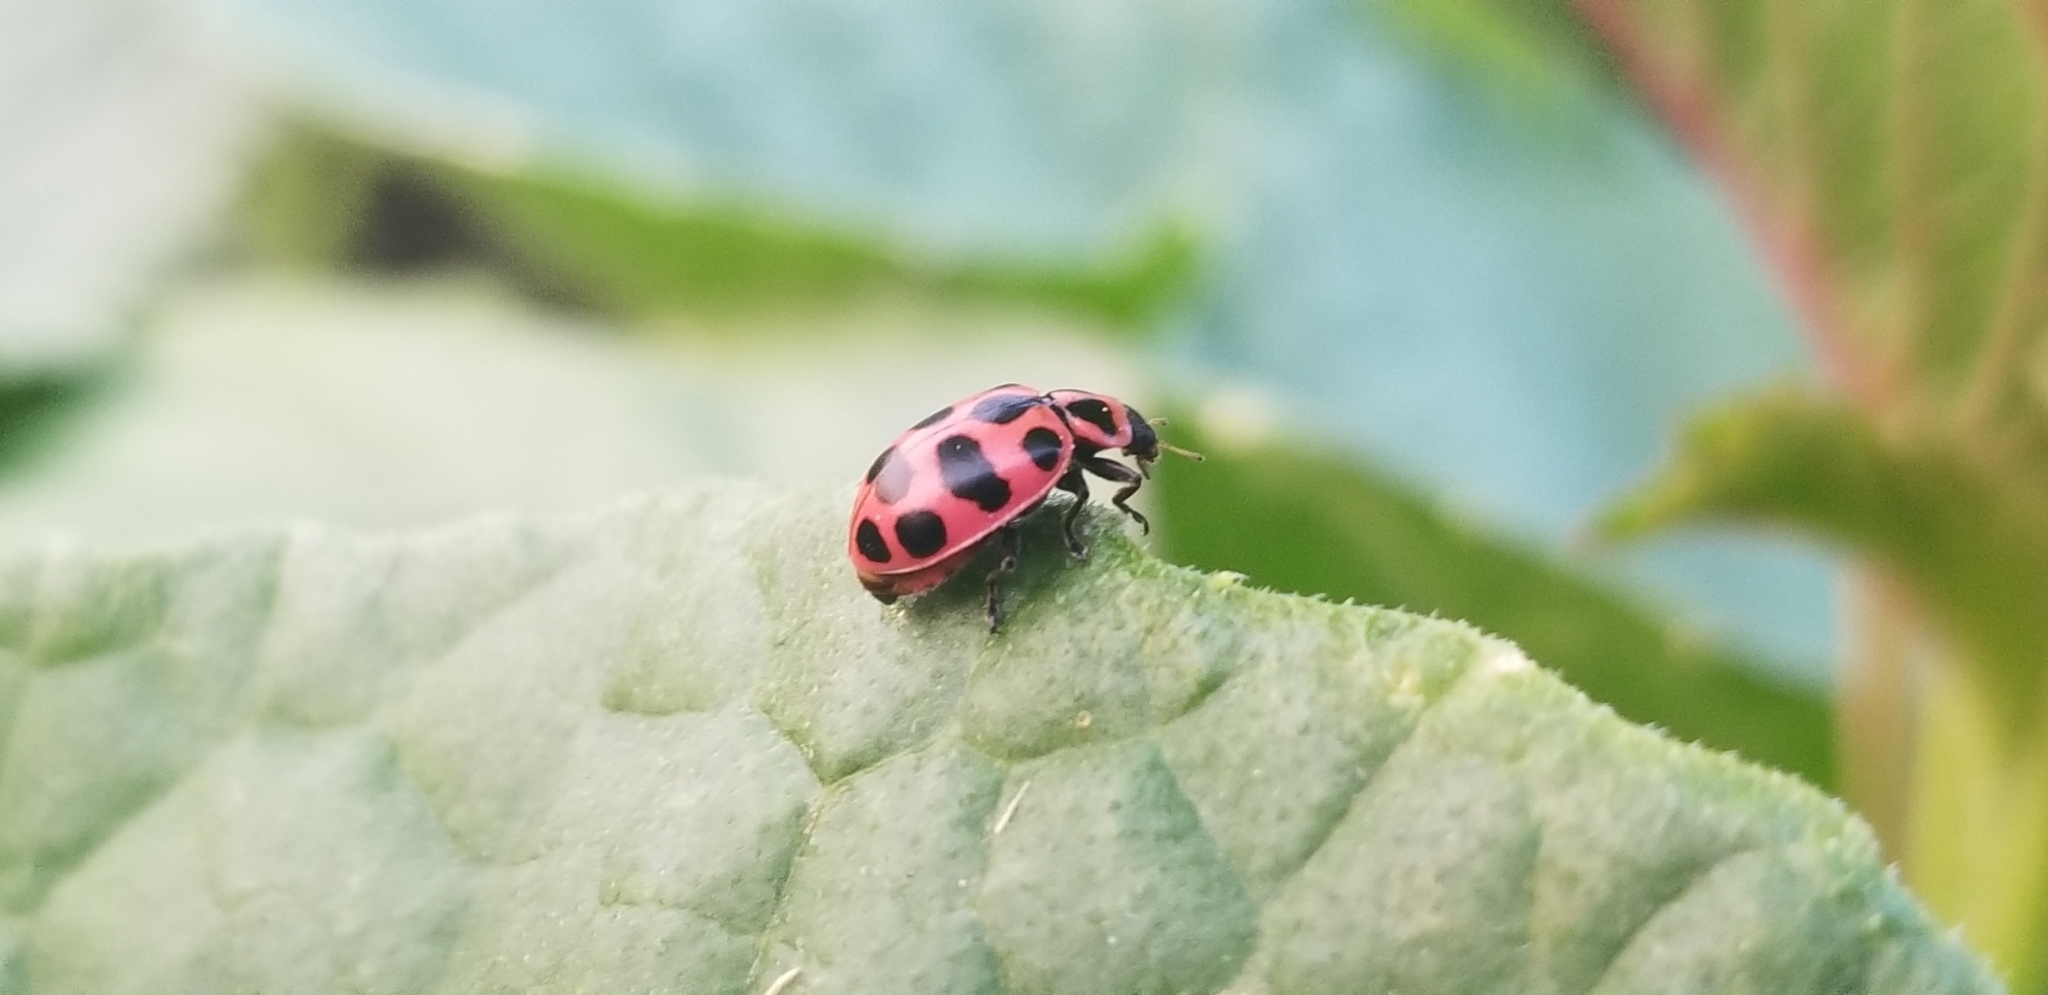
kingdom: Animalia
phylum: Arthropoda
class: Insecta
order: Coleoptera
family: Coccinellidae
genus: Coleomegilla
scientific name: Coleomegilla maculata
